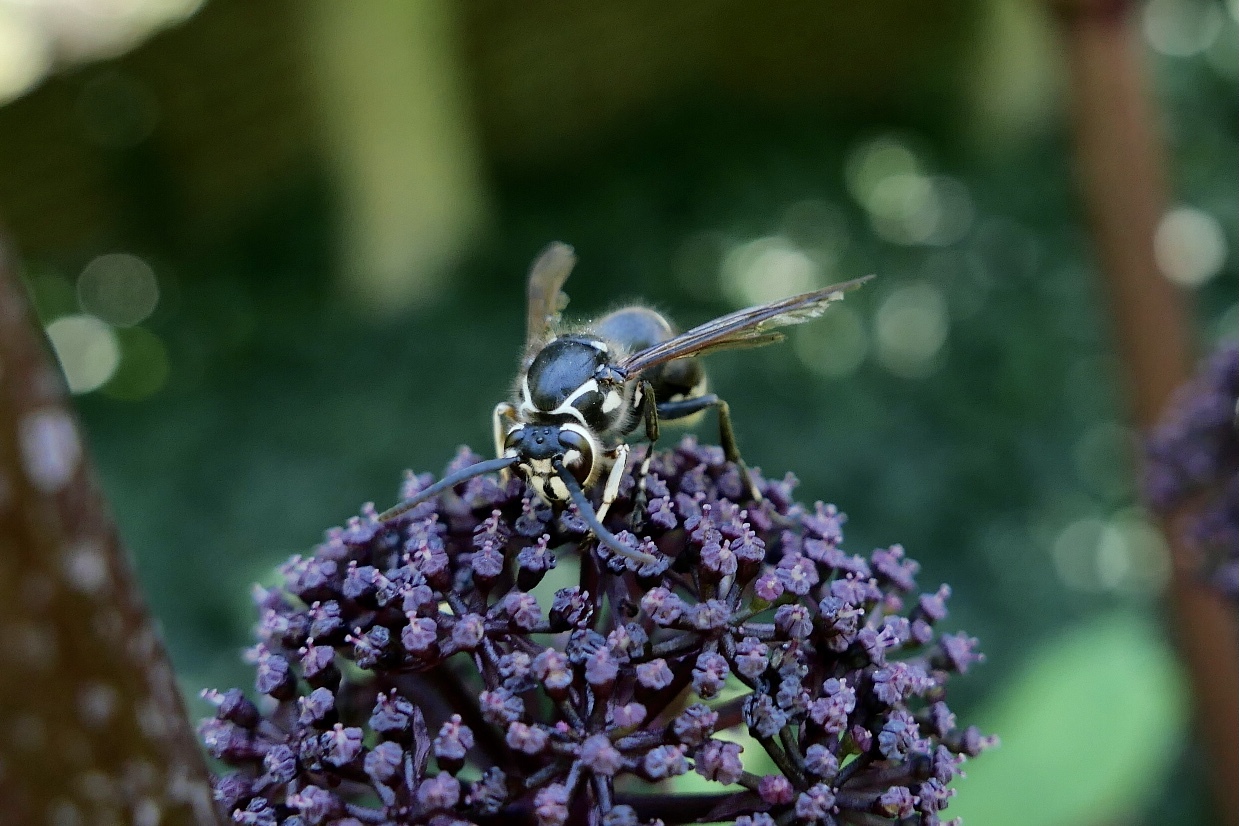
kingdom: Animalia
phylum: Arthropoda
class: Insecta
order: Hymenoptera
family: Vespidae
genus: Dolichovespula
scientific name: Dolichovespula maculata
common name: Bald-faced hornet
